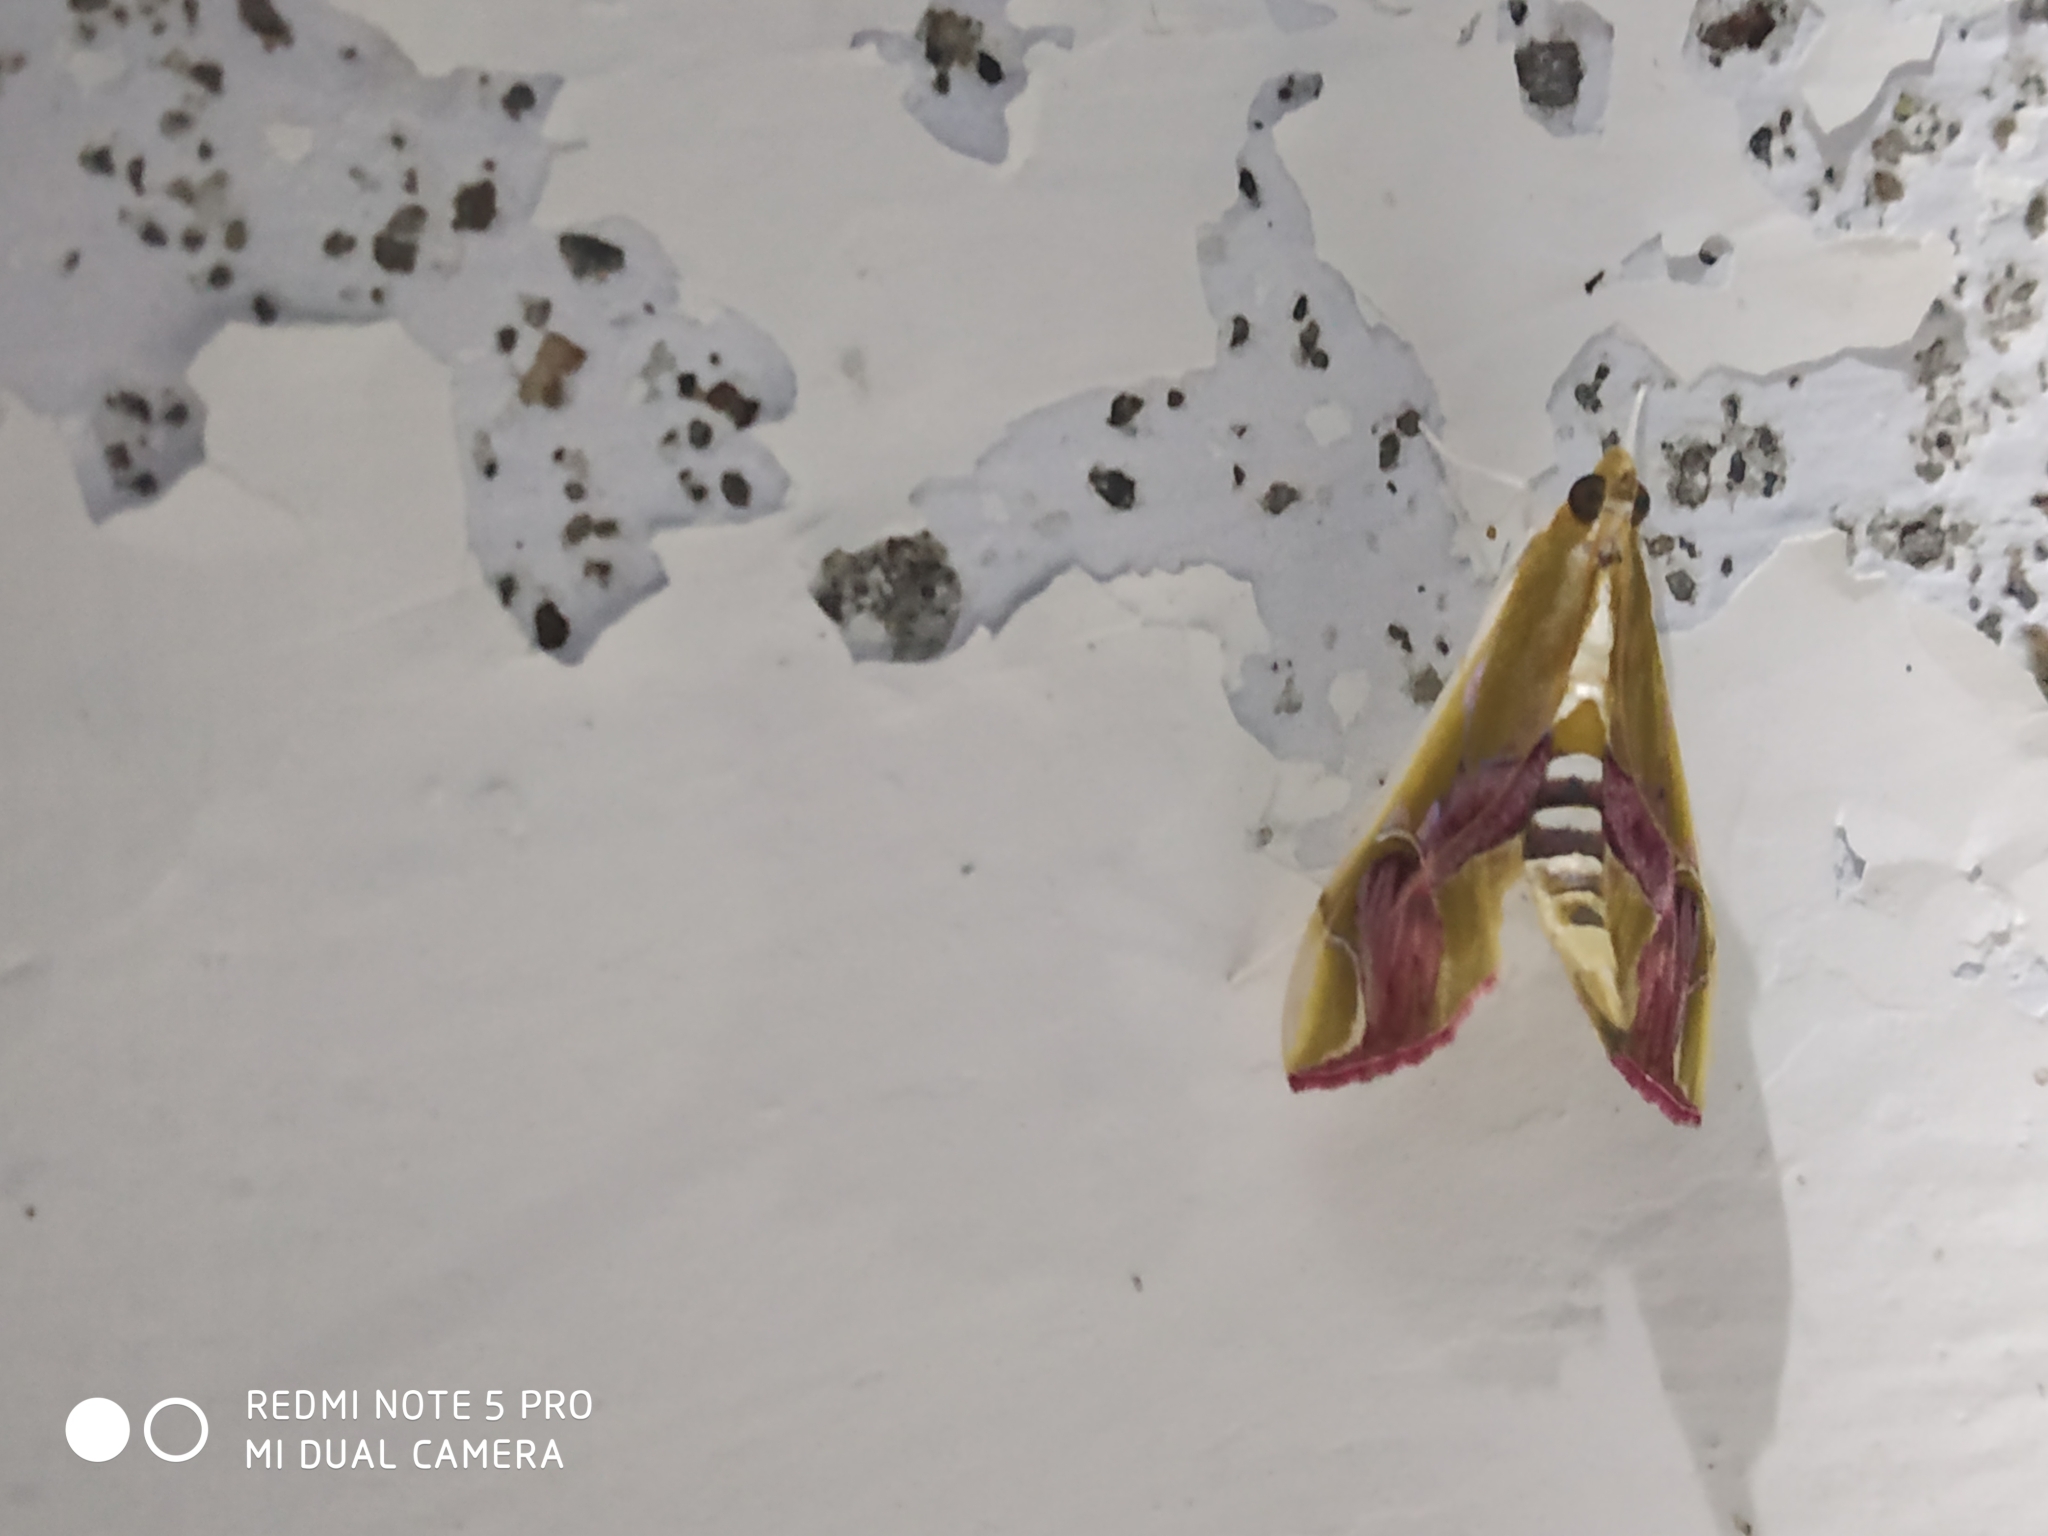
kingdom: Animalia
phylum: Arthropoda
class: Insecta
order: Lepidoptera
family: Crambidae
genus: Agathodes
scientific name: Agathodes ostentalis
